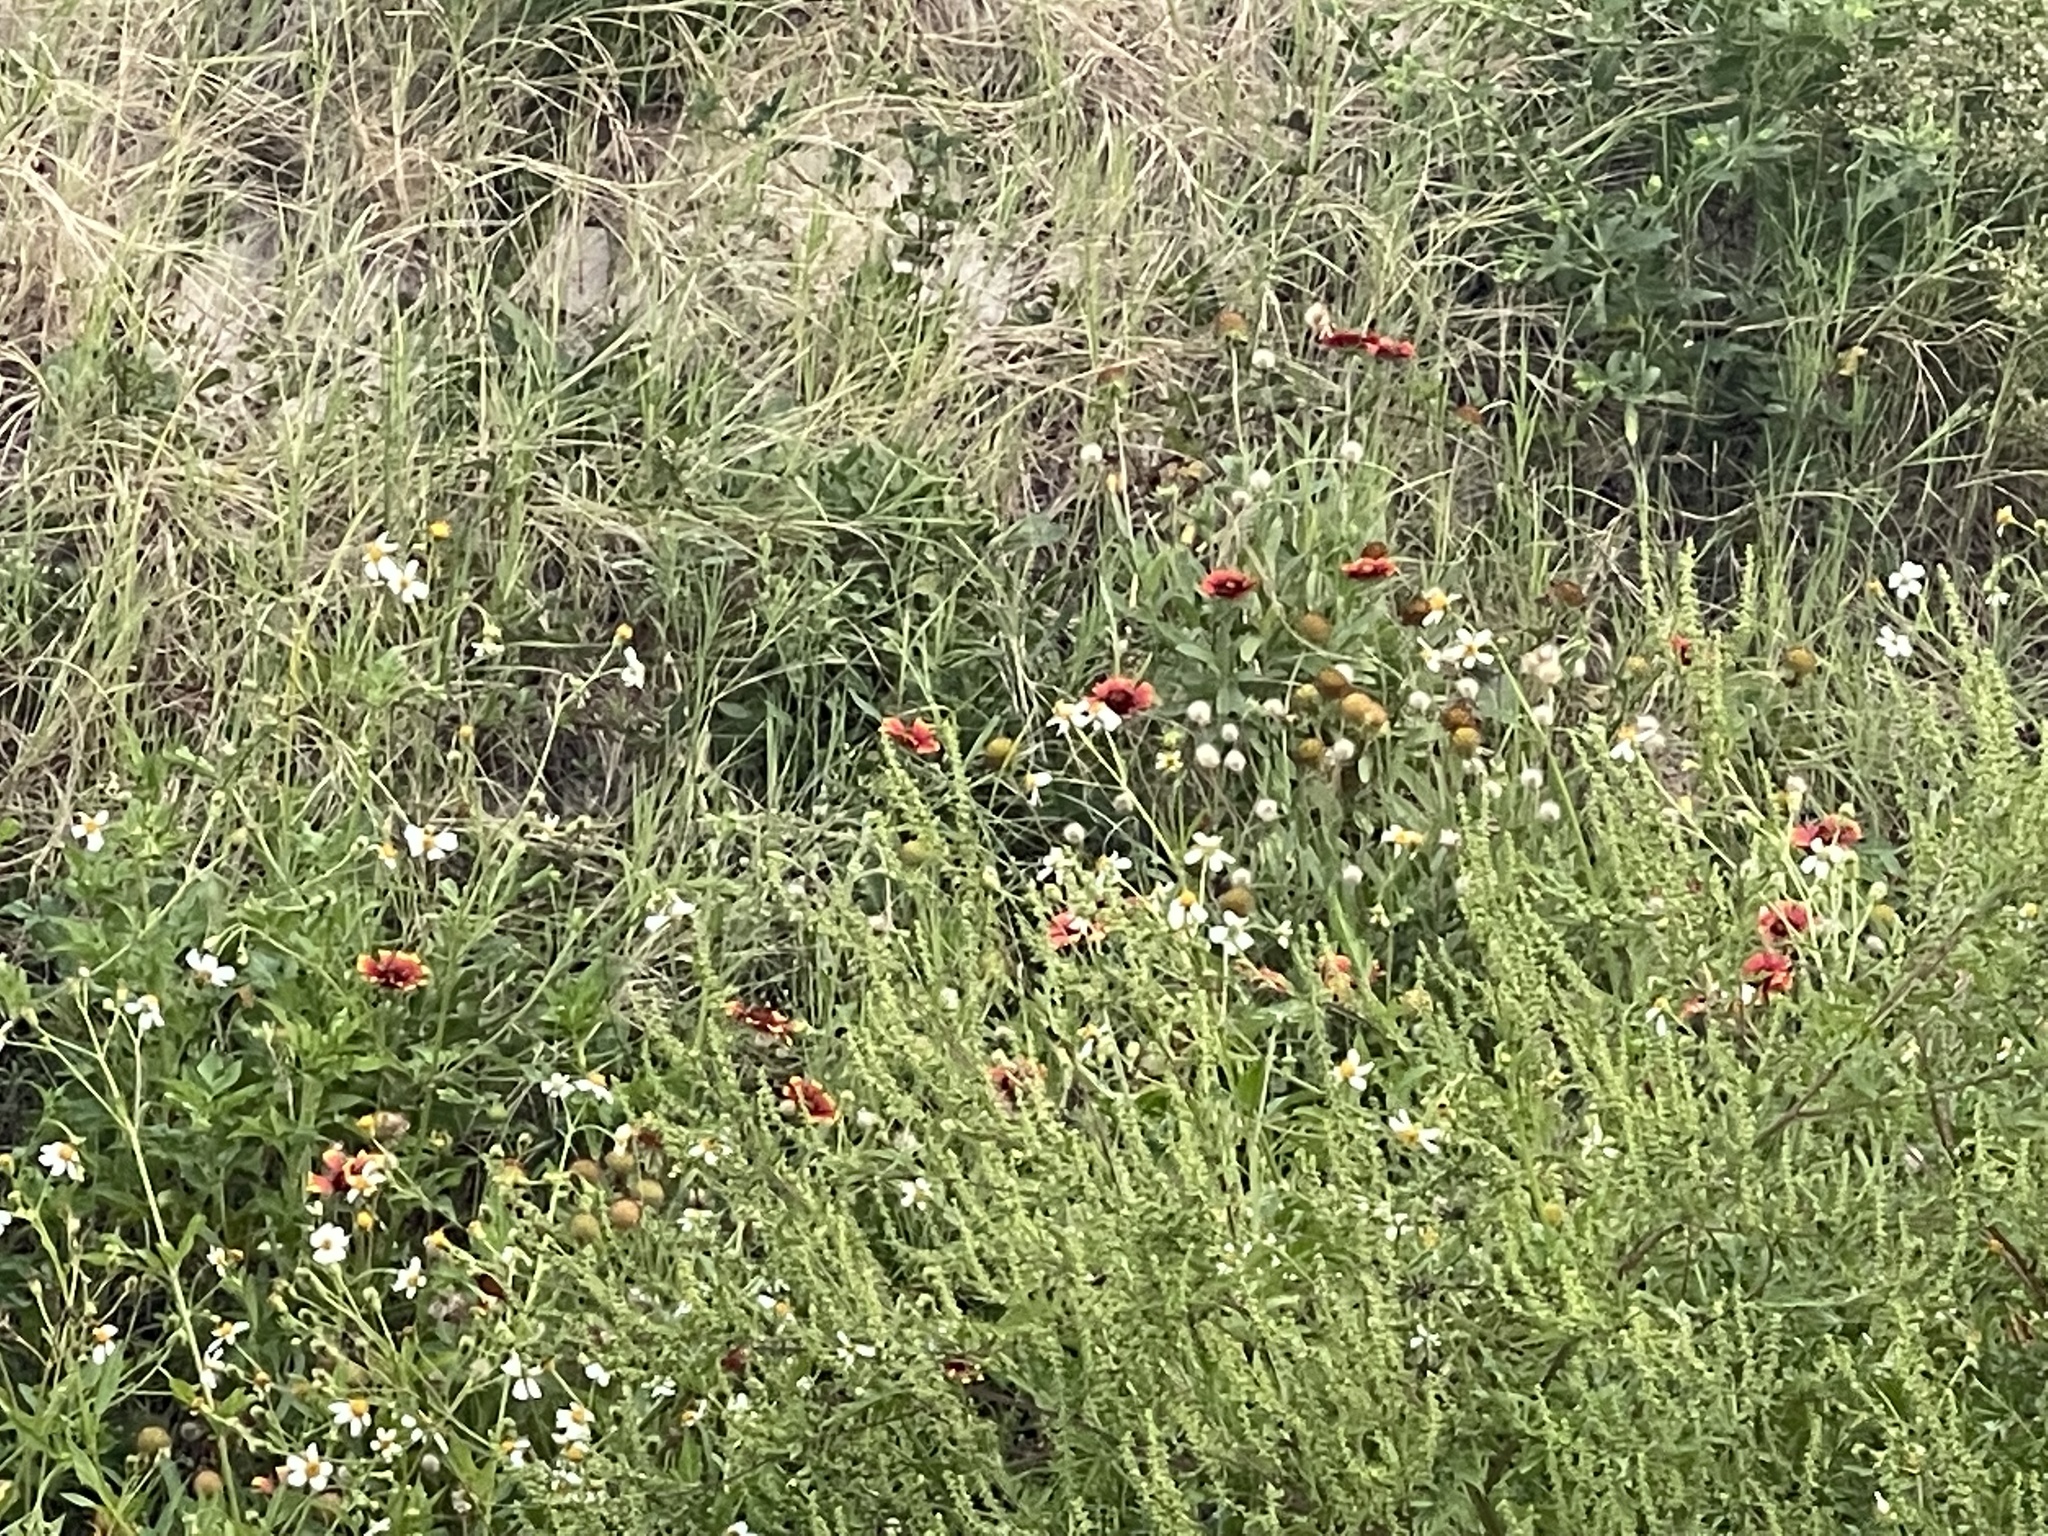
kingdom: Plantae
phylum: Tracheophyta
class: Magnoliopsida
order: Asterales
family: Asteraceae
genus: Gaillardia
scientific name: Gaillardia pulchella
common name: Firewheel
